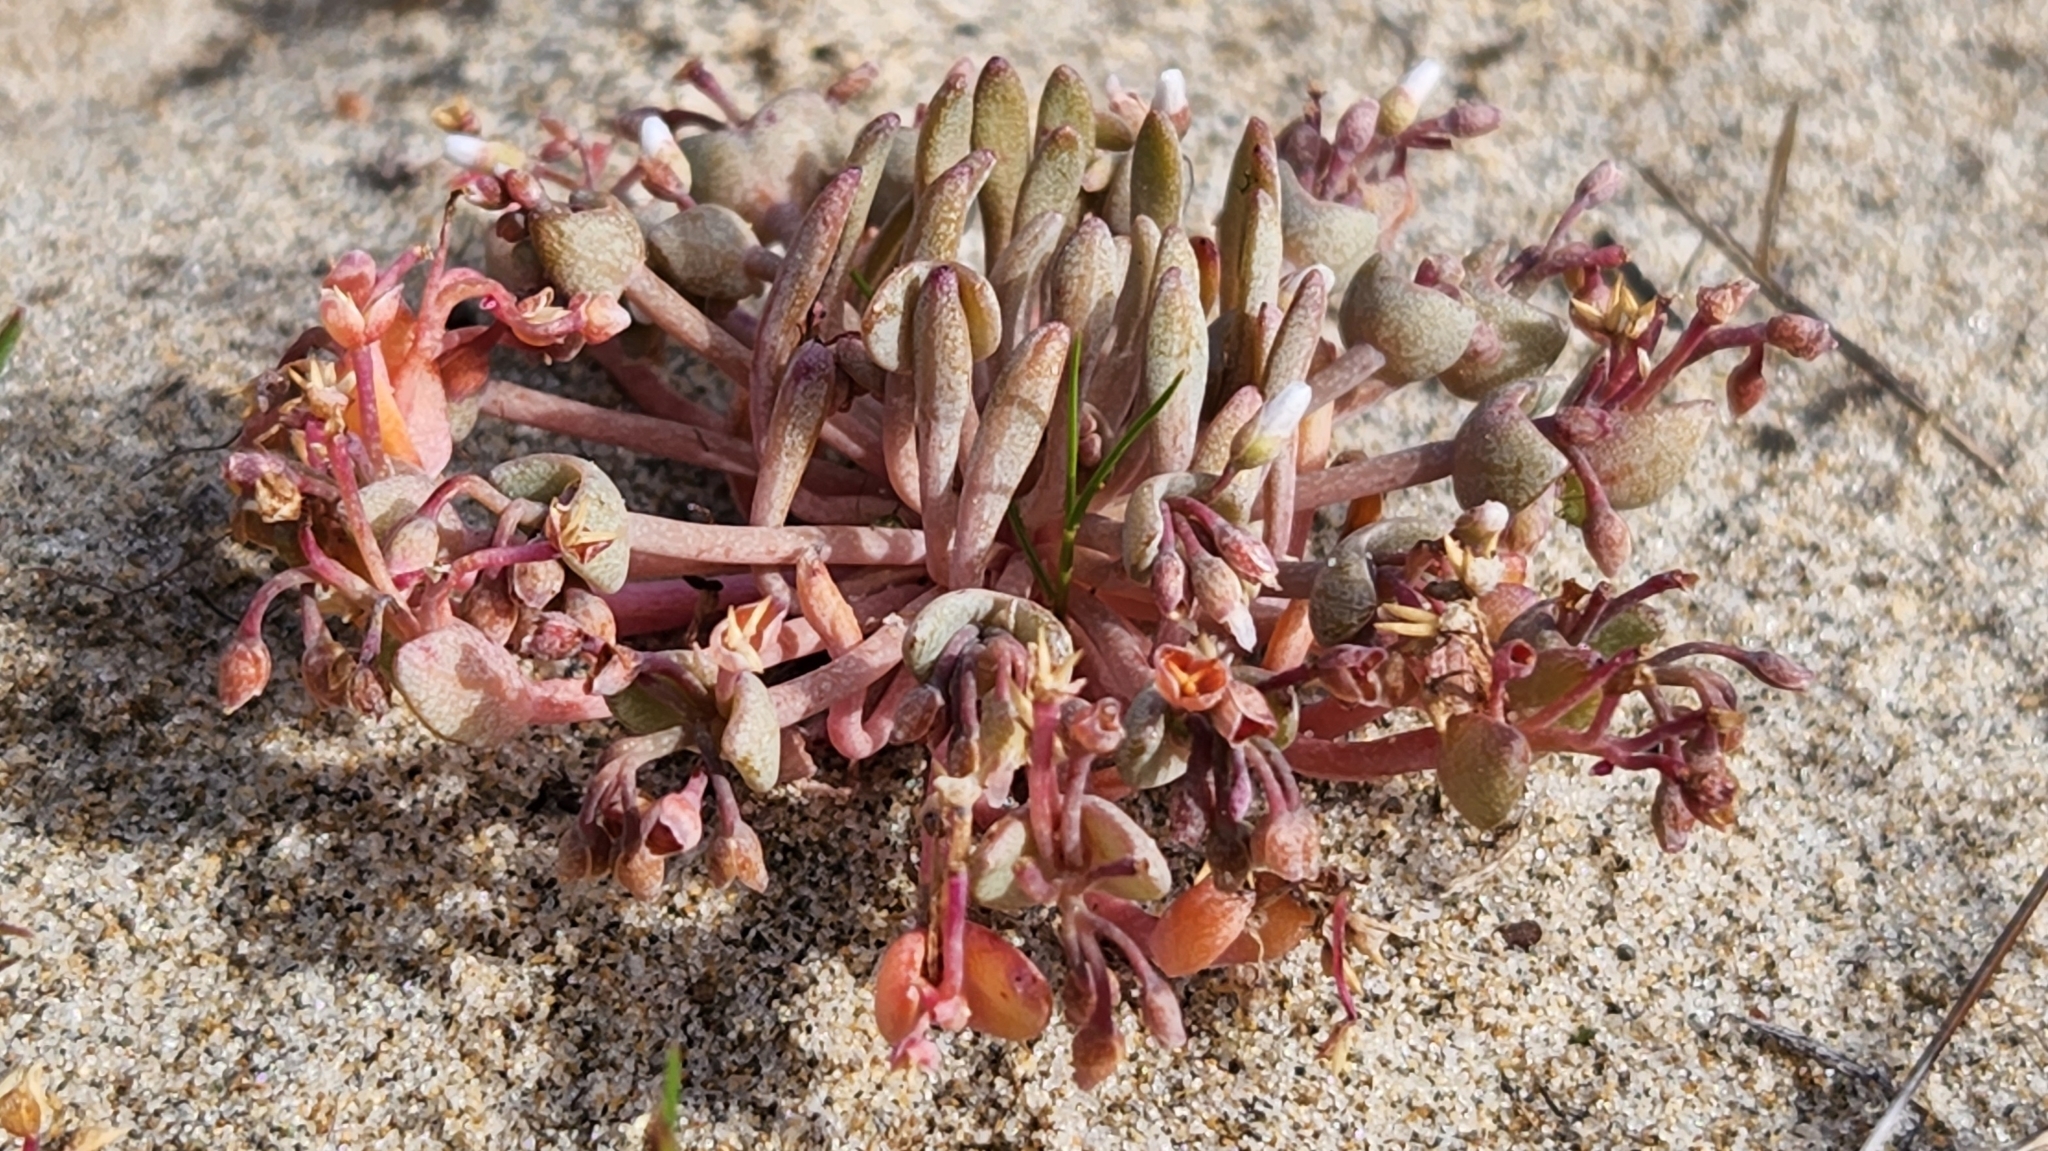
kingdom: Plantae
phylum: Tracheophyta
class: Magnoliopsida
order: Caryophyllales
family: Montiaceae
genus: Claytonia
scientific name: Claytonia exigua
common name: Pale spring beauty
